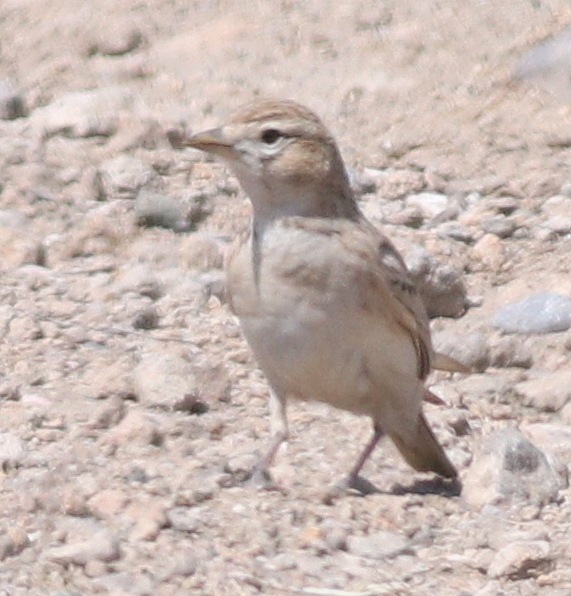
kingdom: Animalia
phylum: Chordata
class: Aves
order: Passeriformes
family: Alaudidae
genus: Calandrella
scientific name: Calandrella brachydactyla
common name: Greater short-toed lark
